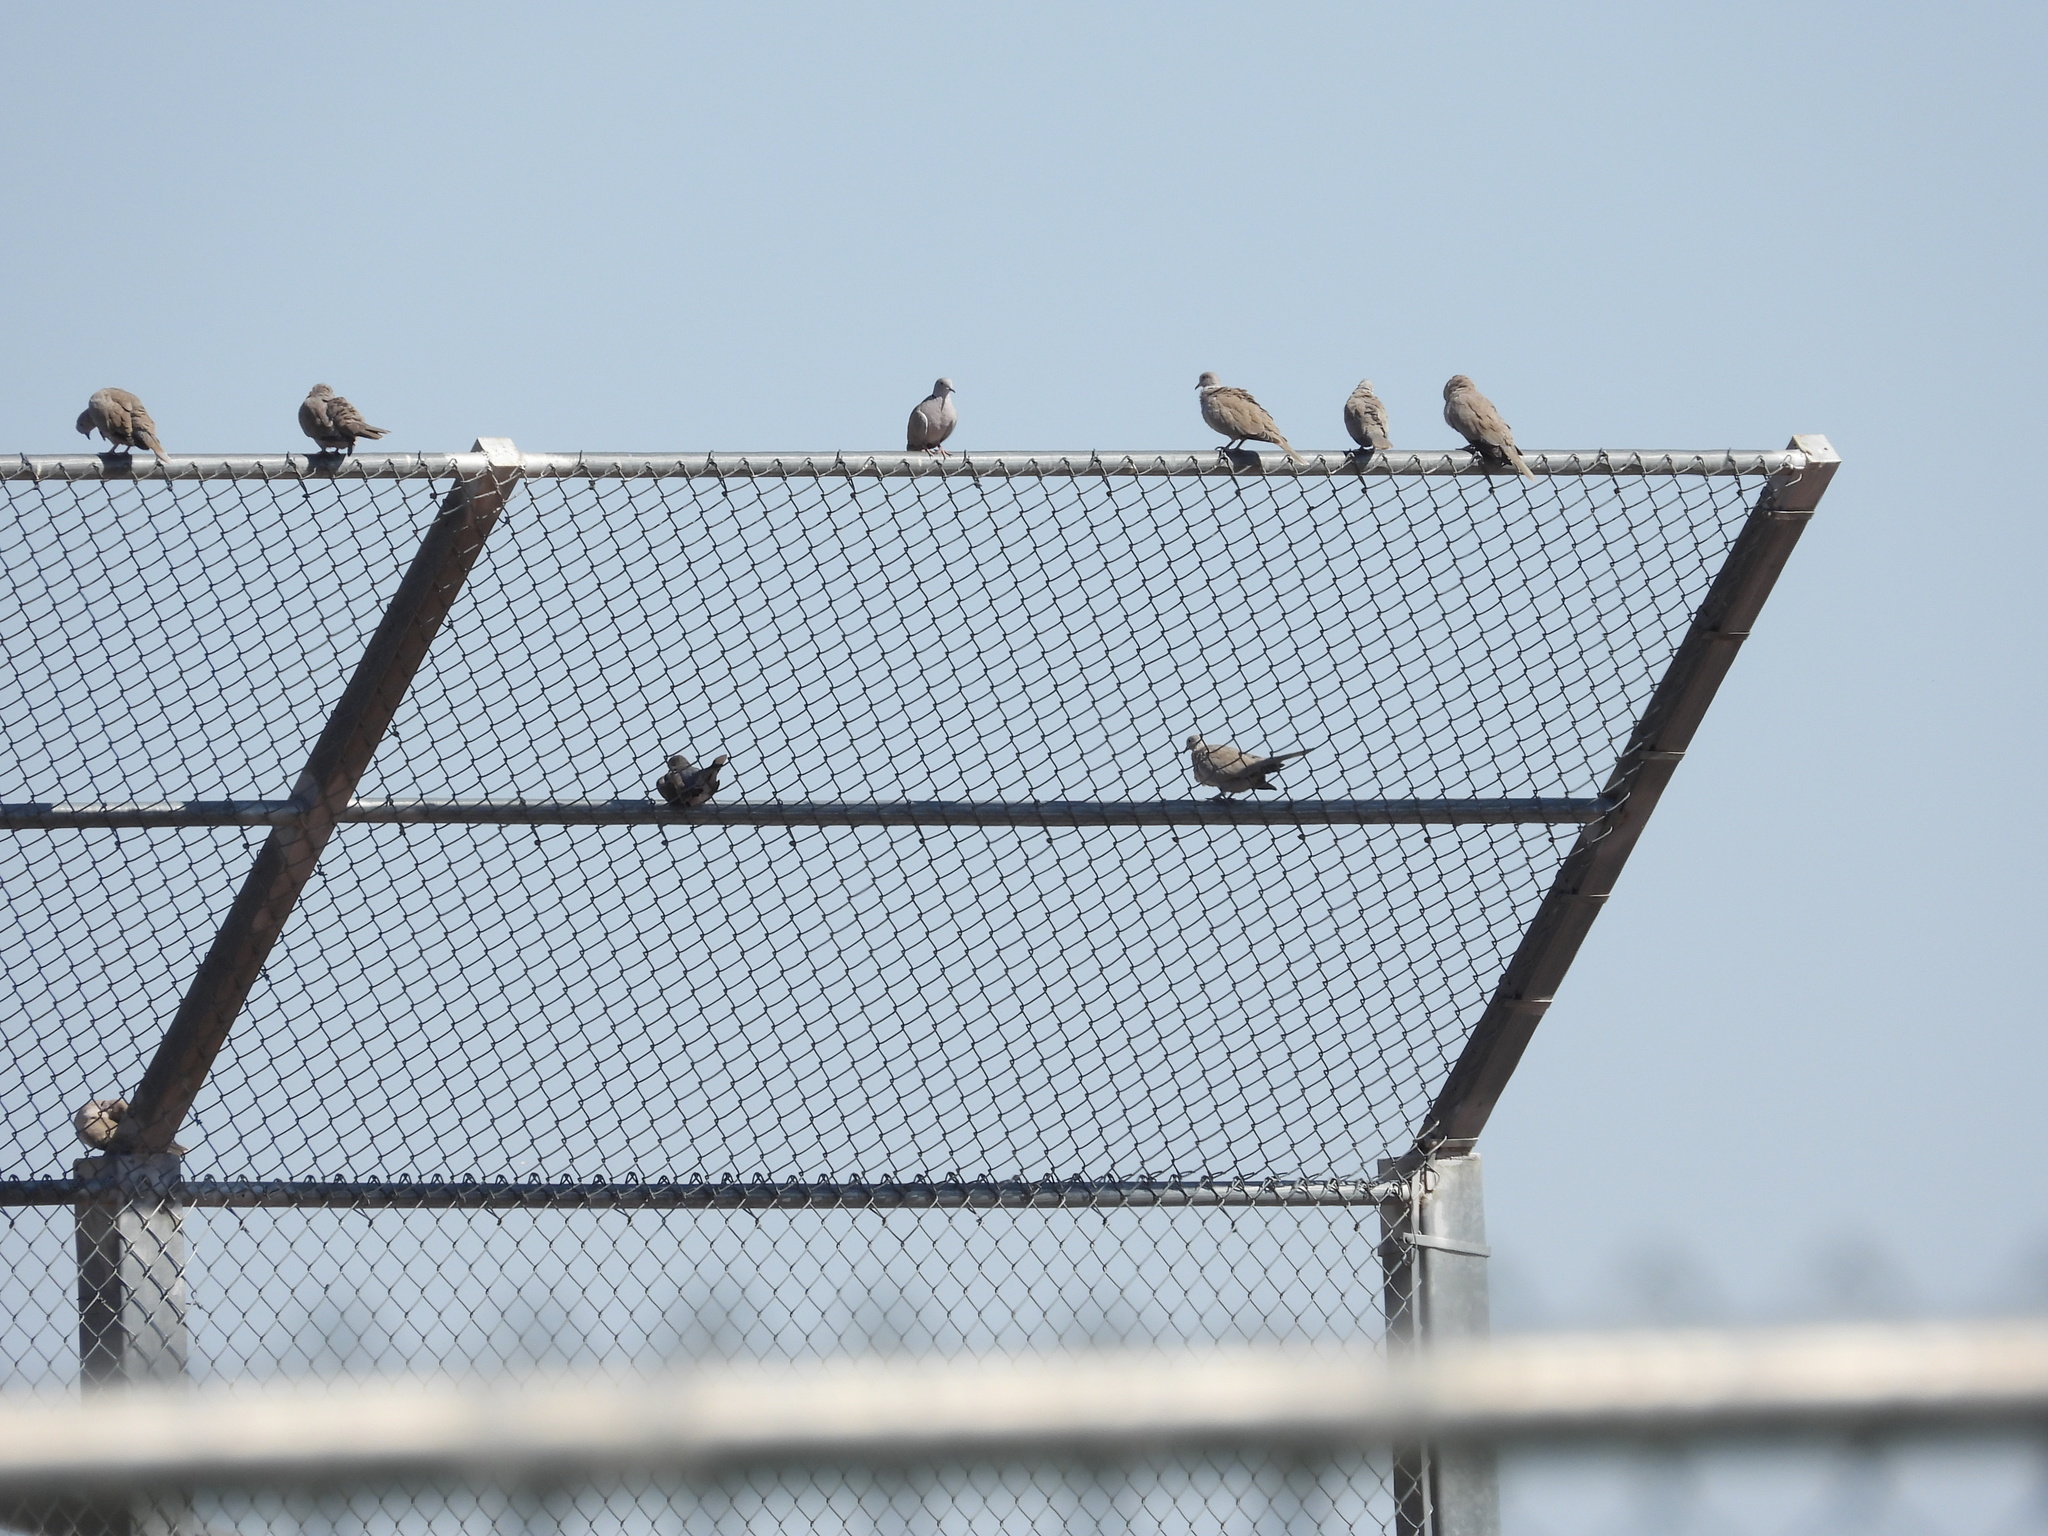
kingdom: Animalia
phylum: Chordata
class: Aves
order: Columbiformes
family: Columbidae
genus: Streptopelia
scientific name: Streptopelia decaocto
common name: Eurasian collared dove
